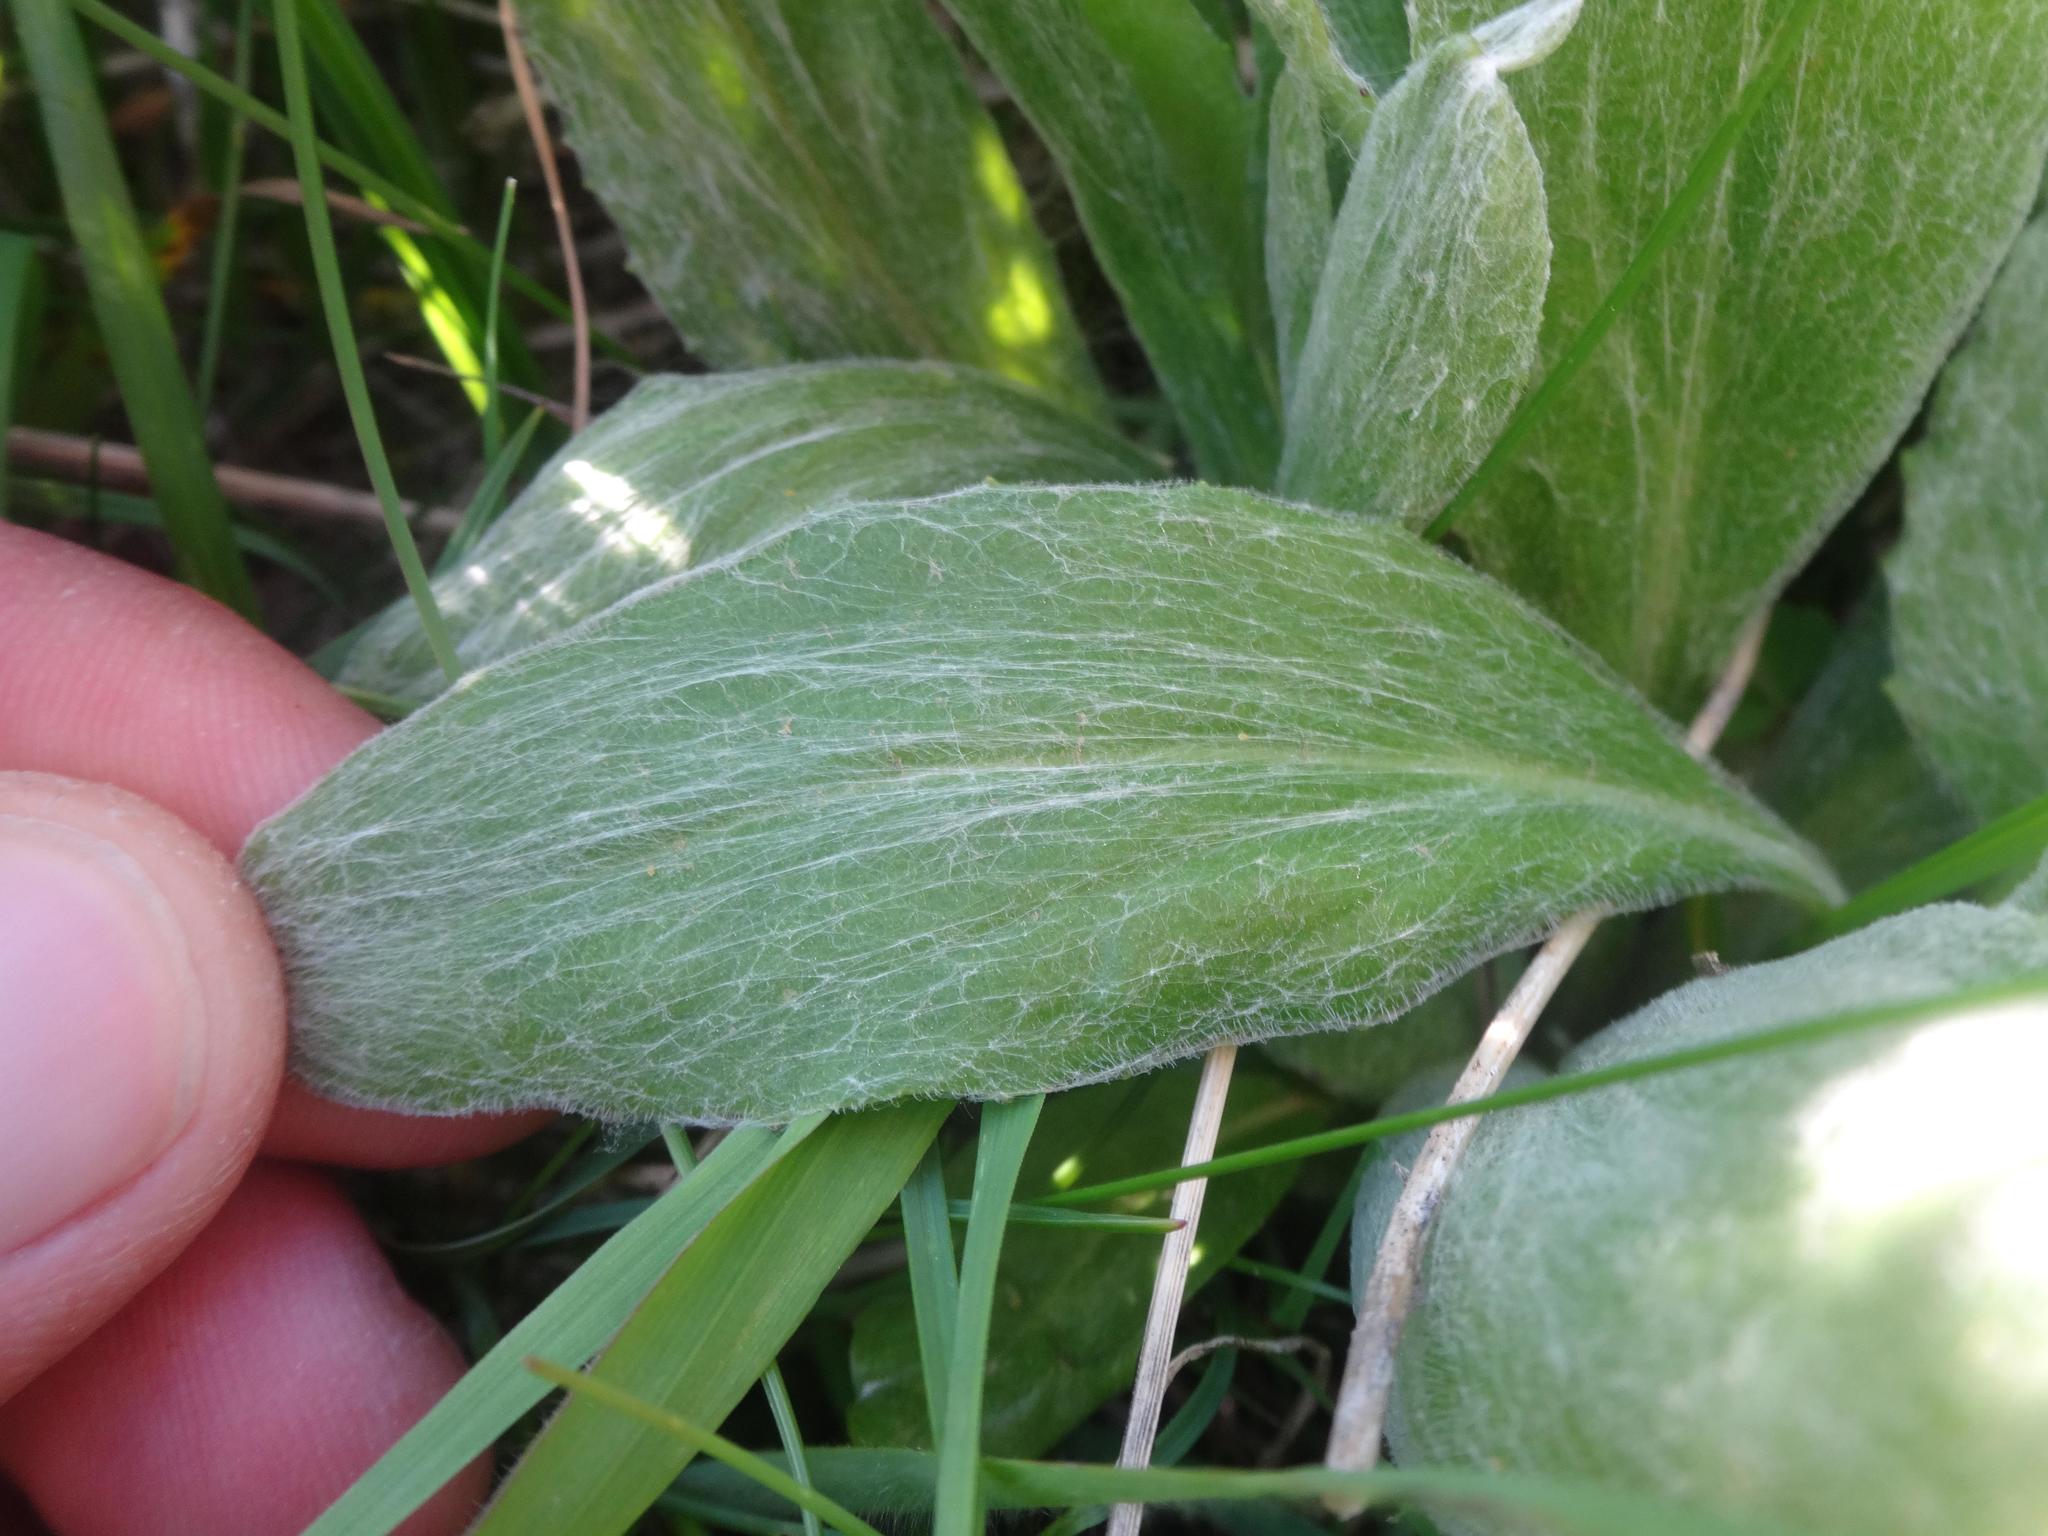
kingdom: Plantae
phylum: Tracheophyta
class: Magnoliopsida
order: Asterales
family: Asteraceae
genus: Tephroseris
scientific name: Tephroseris integrifolia
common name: Field fleawort
